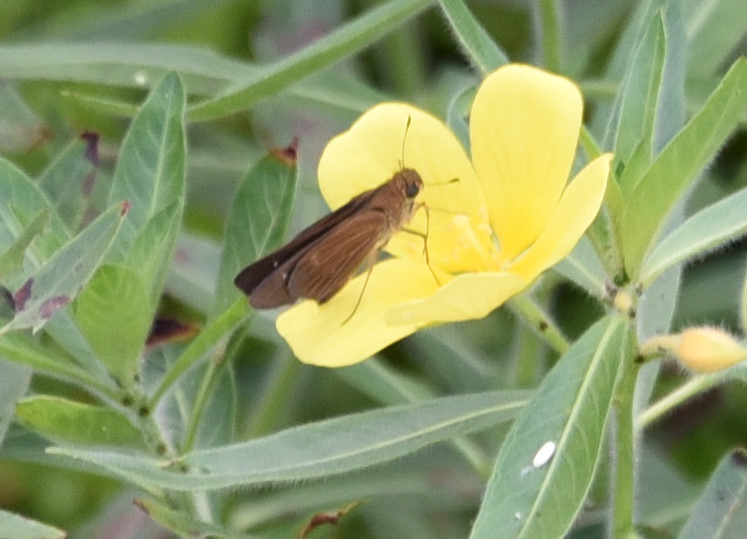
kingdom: Animalia
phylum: Arthropoda
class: Insecta
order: Lepidoptera
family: Hesperiidae
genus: Panoquina
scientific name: Panoquina ocola
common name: Ocola skipper
